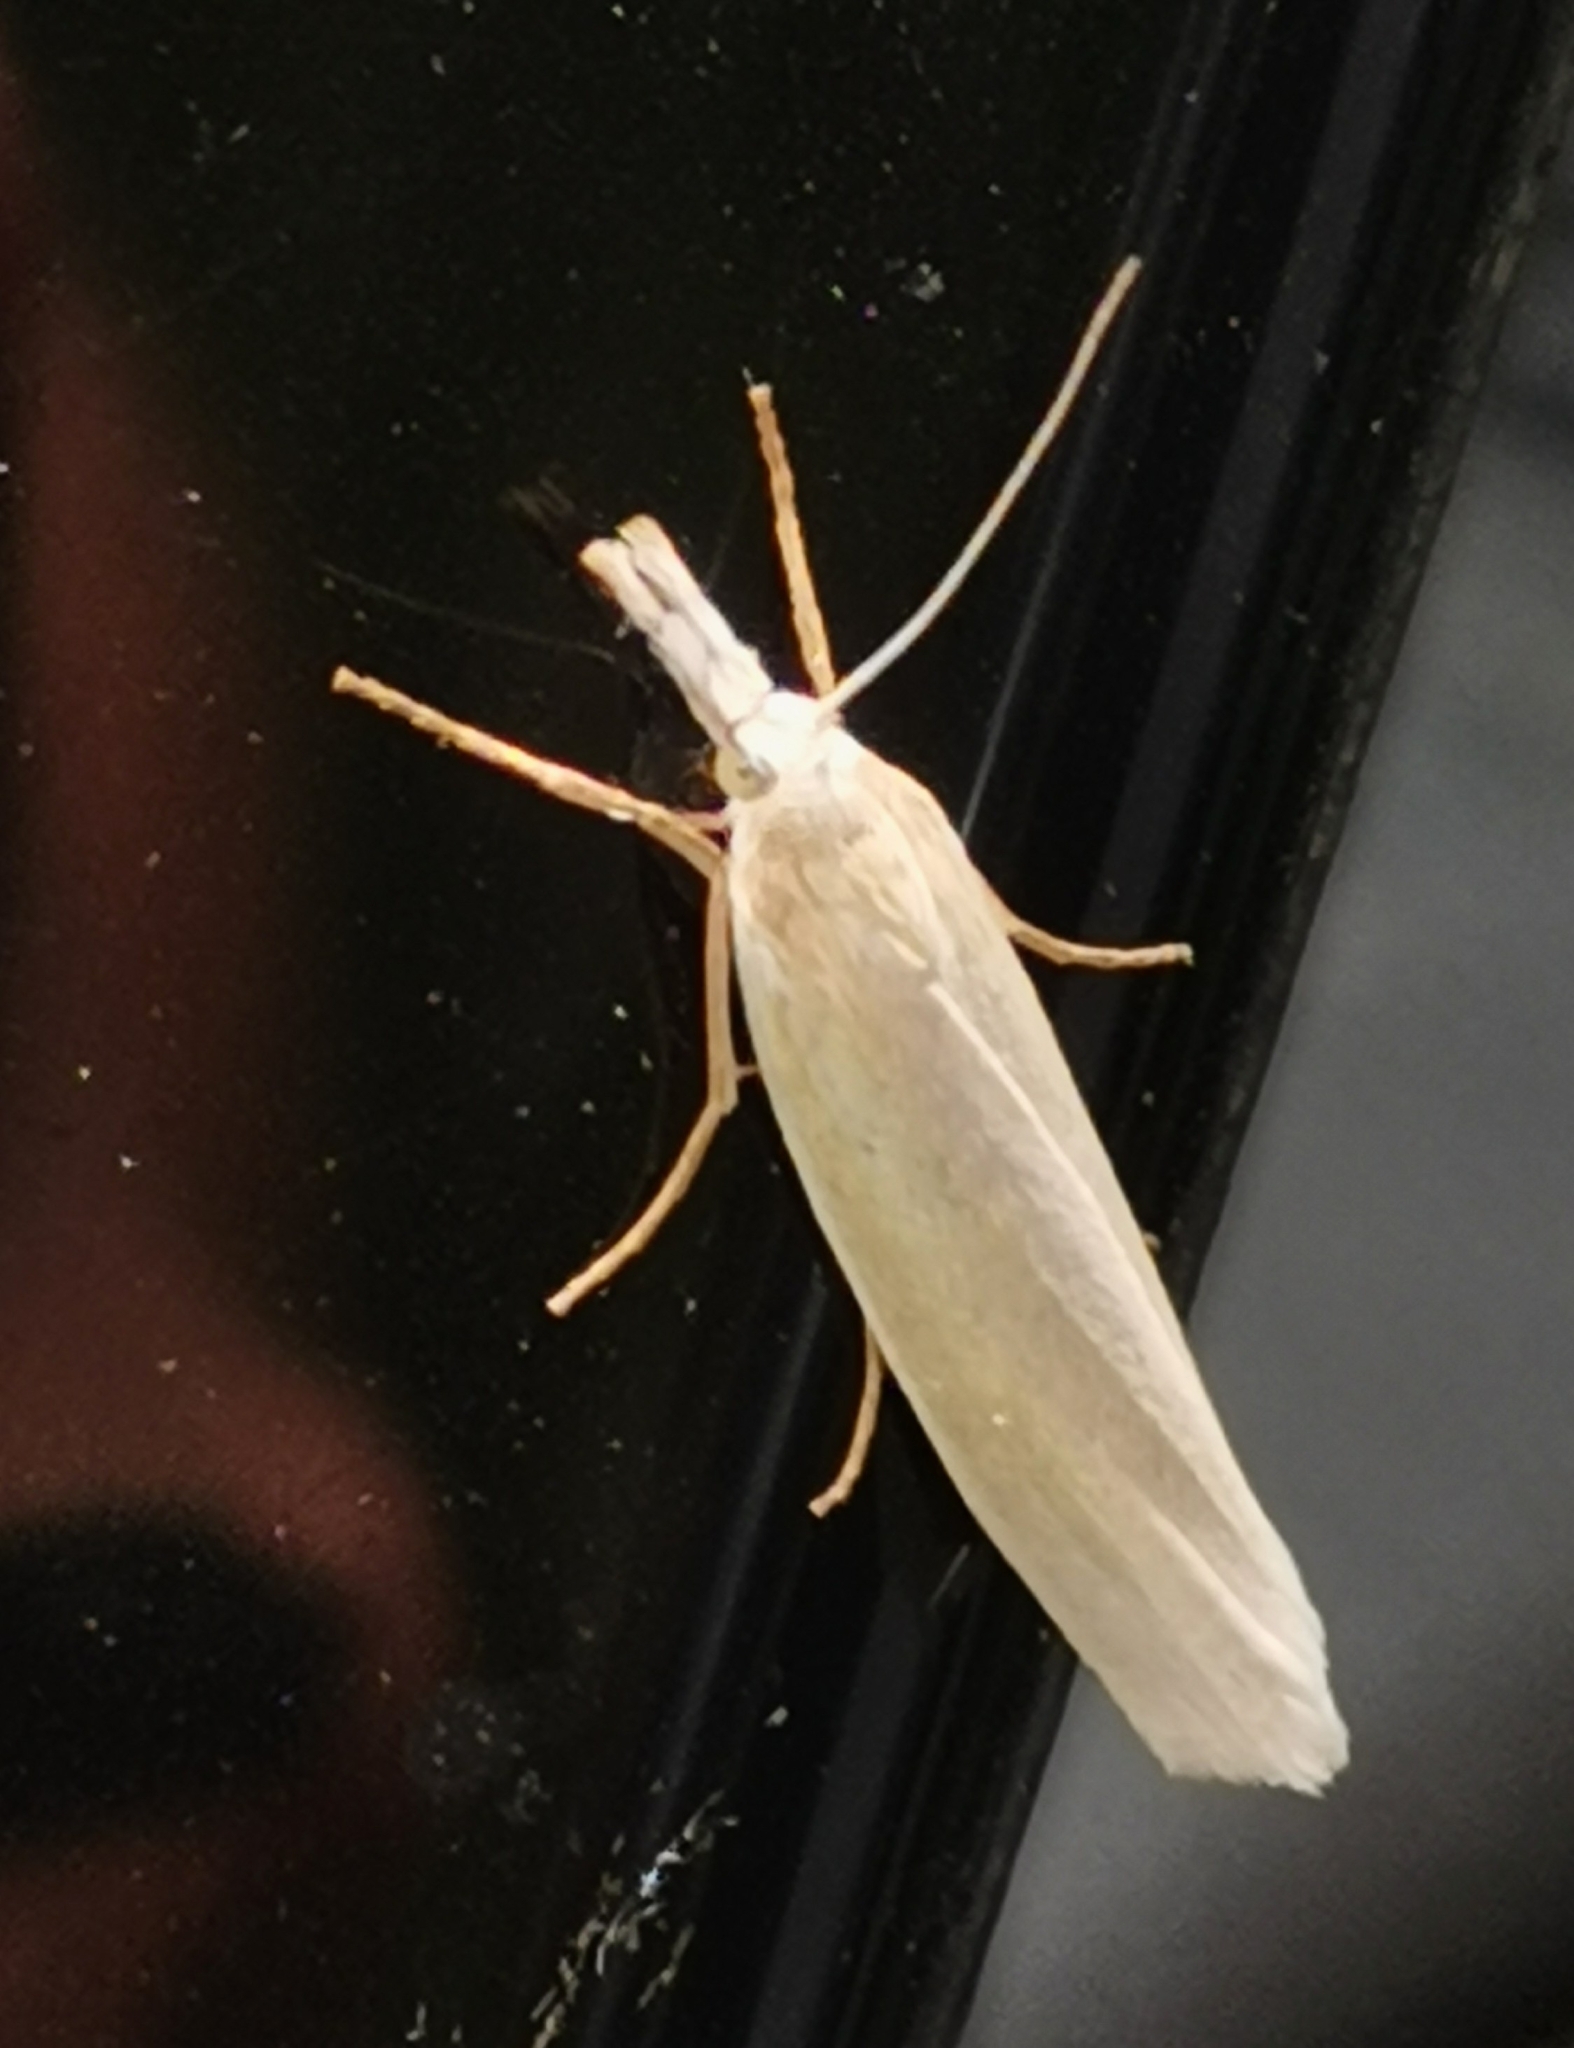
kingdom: Animalia
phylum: Arthropoda
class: Insecta
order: Lepidoptera
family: Crambidae
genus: Crambus
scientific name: Crambus perlellus
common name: Yellow satin veneer
